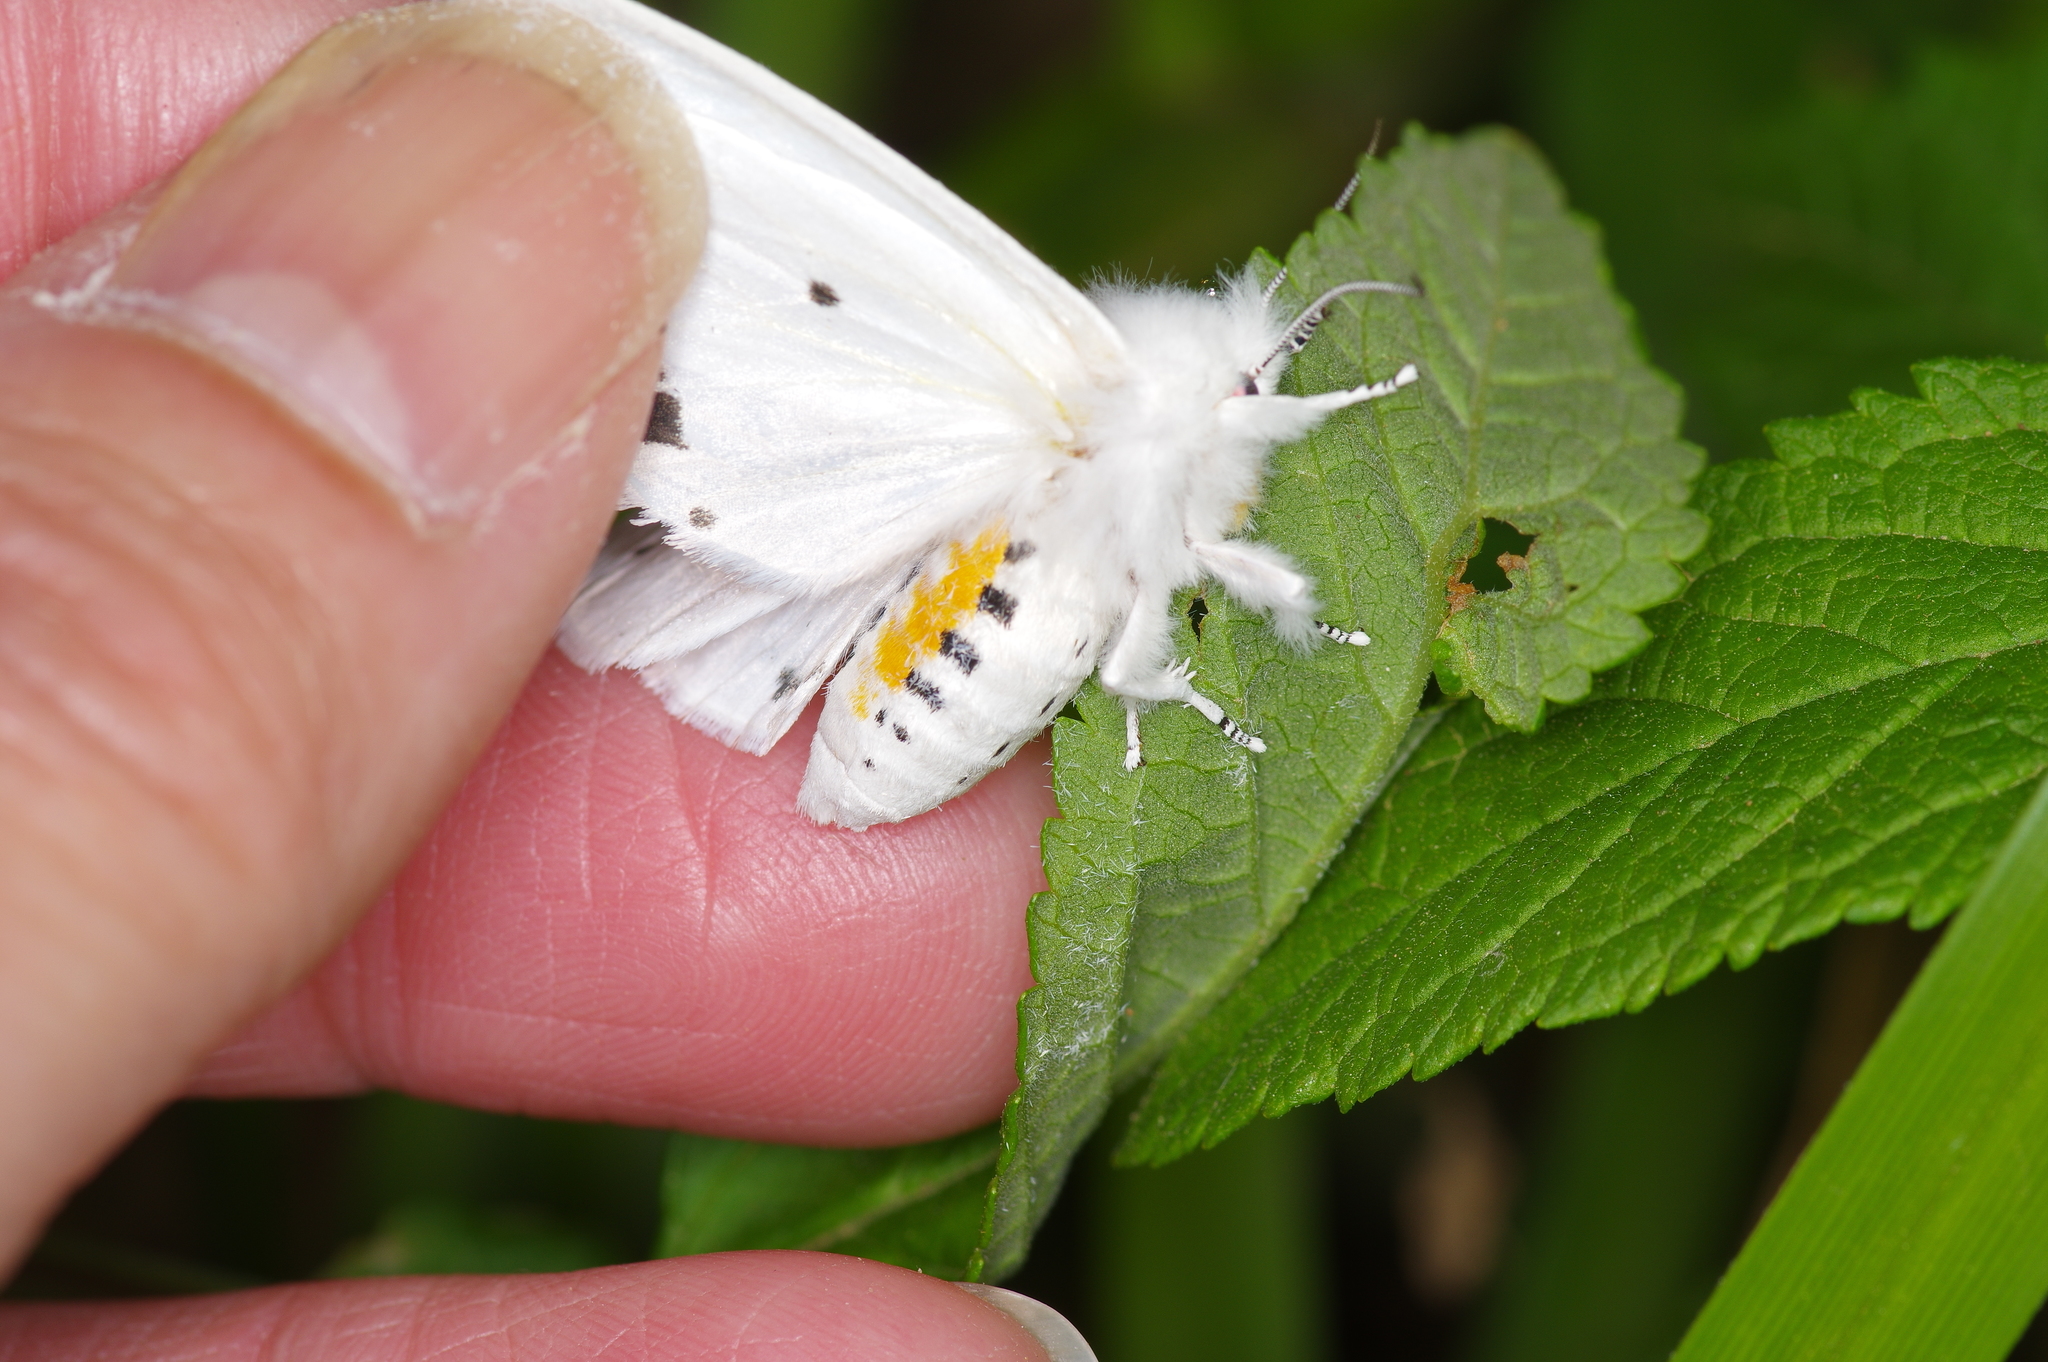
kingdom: Animalia
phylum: Arthropoda
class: Insecta
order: Lepidoptera
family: Erebidae
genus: Spilosoma
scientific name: Spilosoma virginica
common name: Virginia tiger moth
